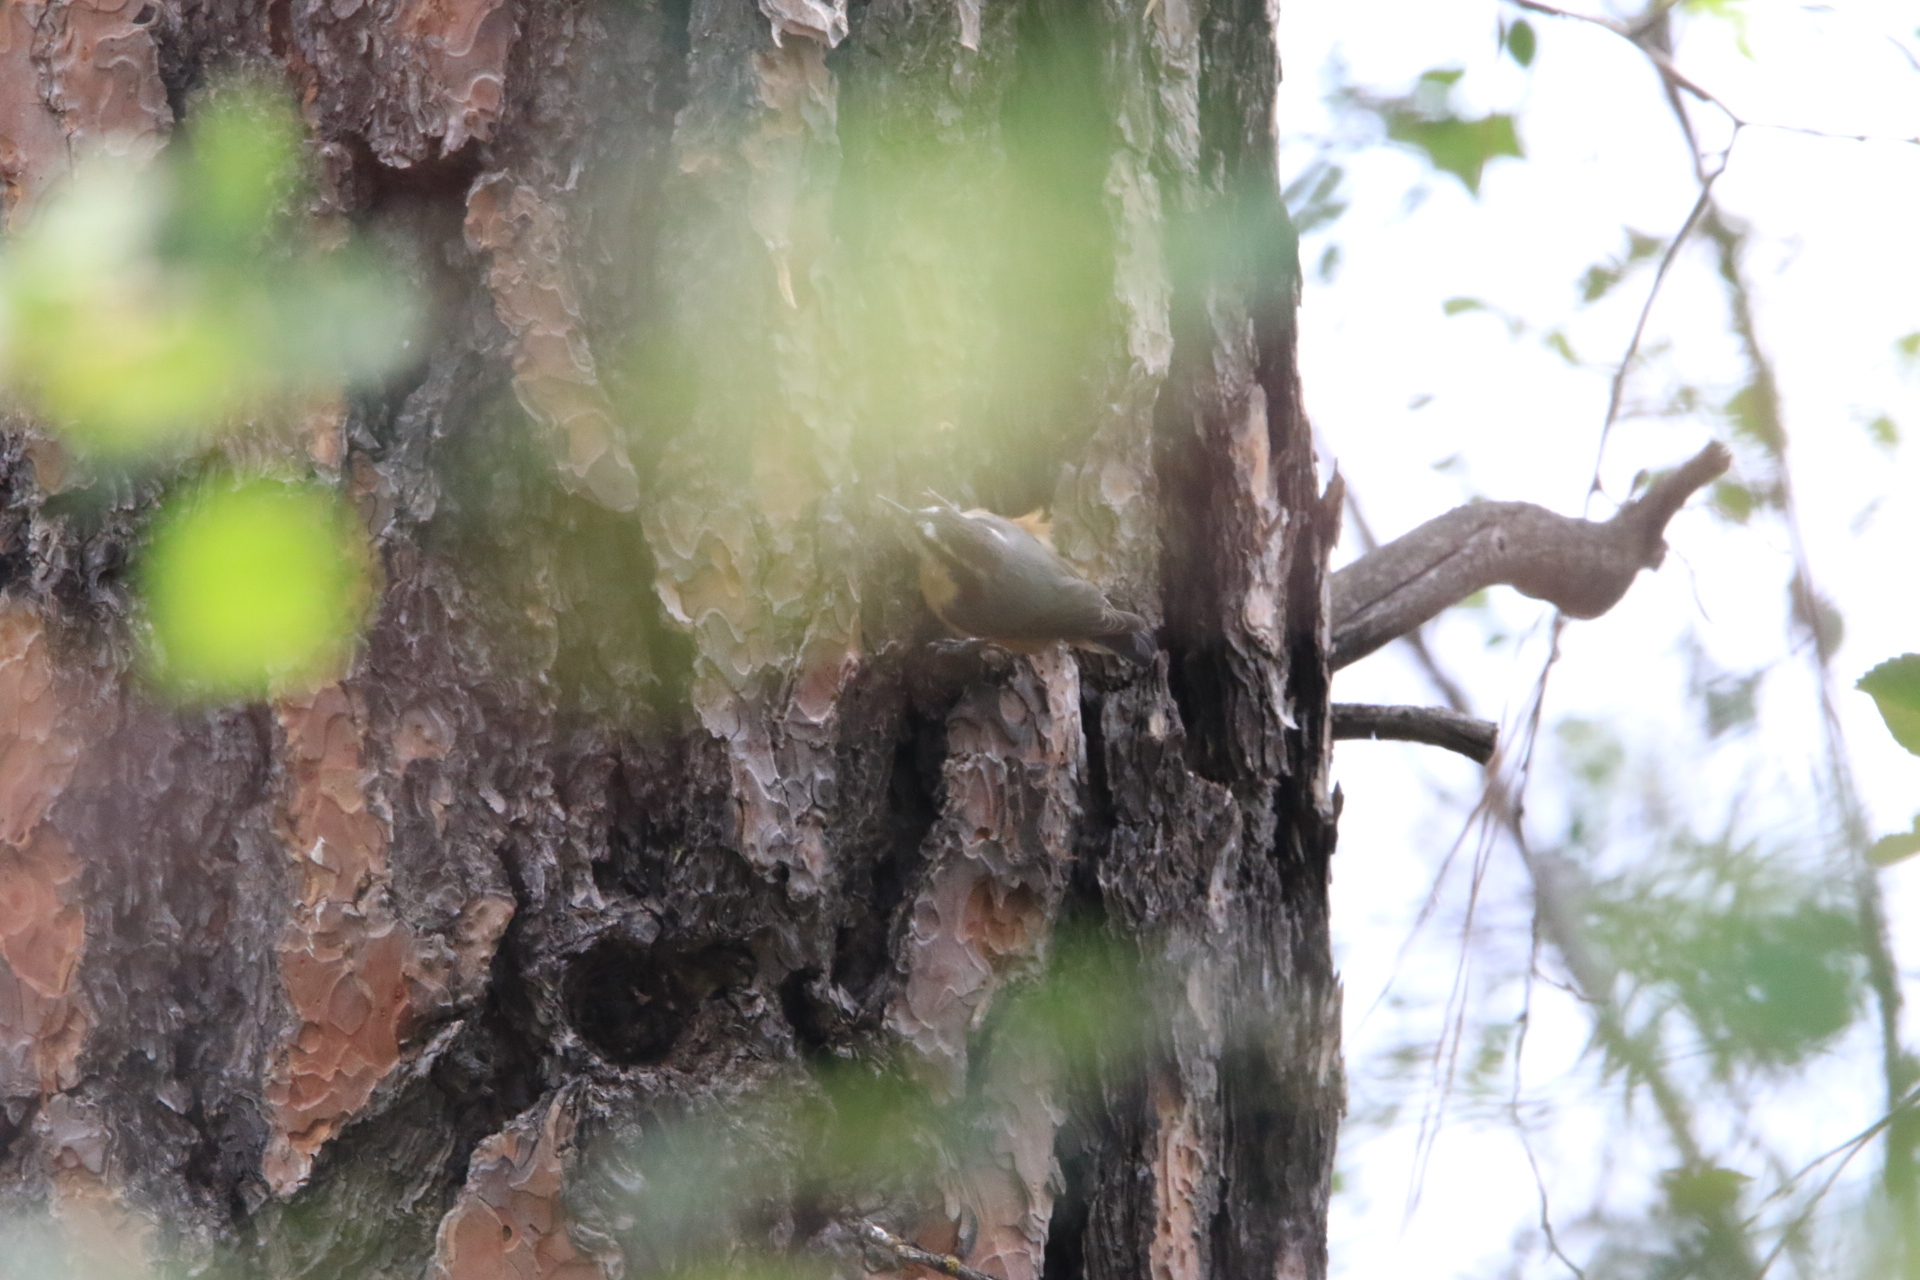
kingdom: Animalia
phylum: Chordata
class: Aves
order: Passeriformes
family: Sittidae
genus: Sitta
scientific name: Sitta canadensis
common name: Red-breasted nuthatch
